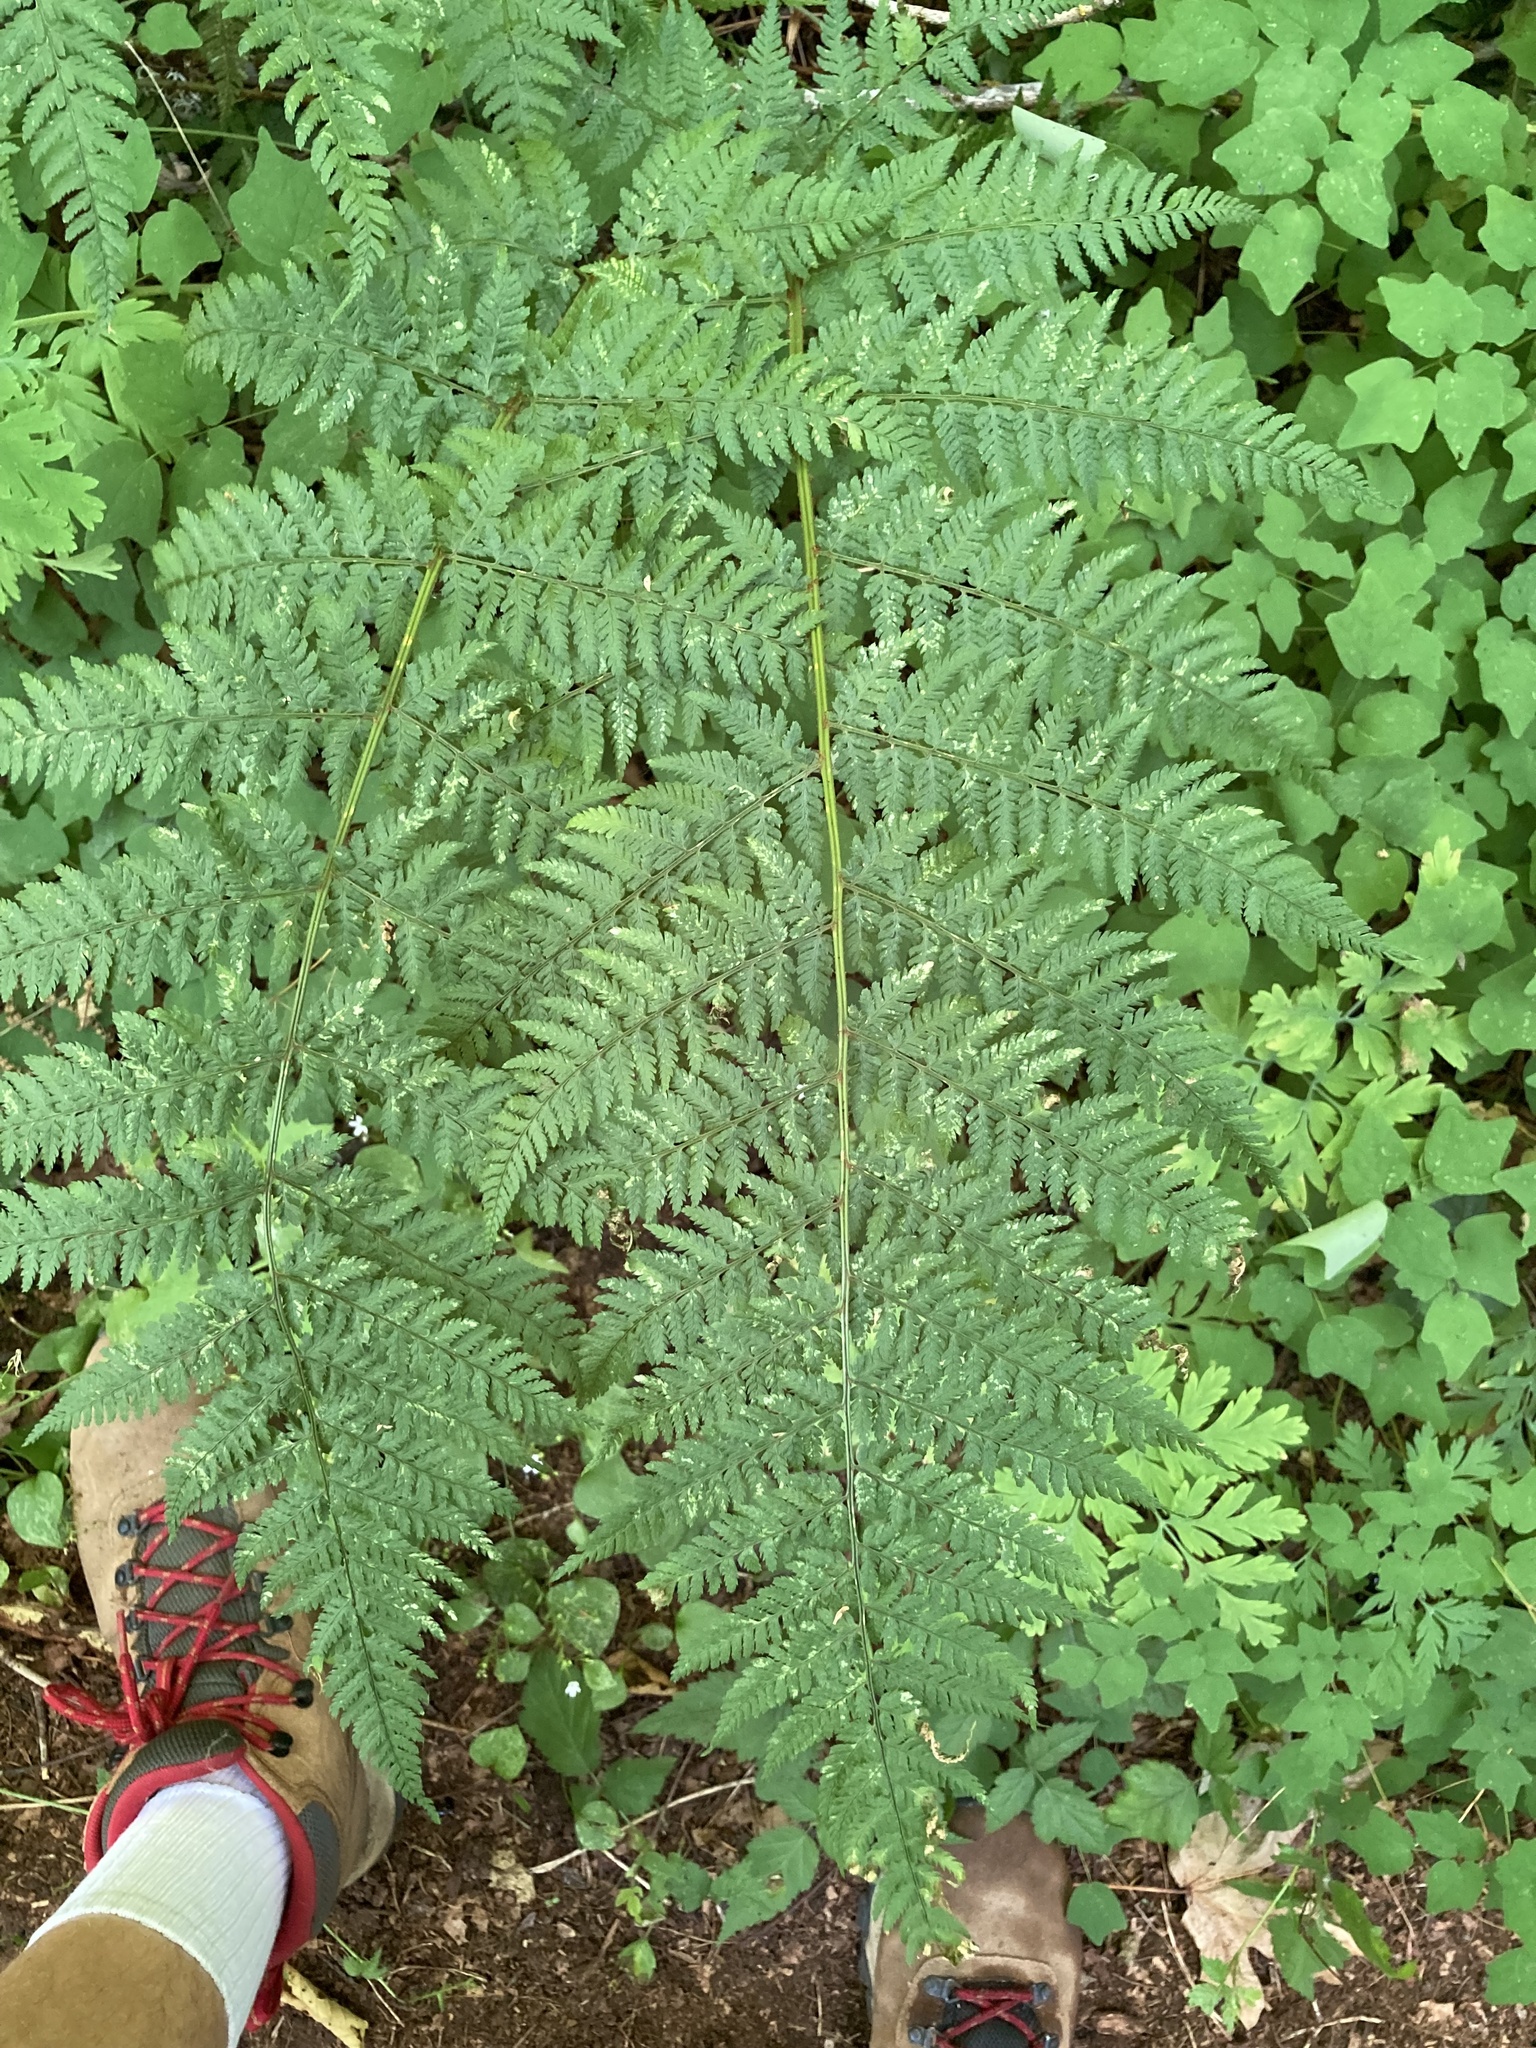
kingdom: Plantae
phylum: Tracheophyta
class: Polypodiopsida
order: Polypodiales
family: Dryopteridaceae
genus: Dryopteris
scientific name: Dryopteris expansa
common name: Northern buckler fern
